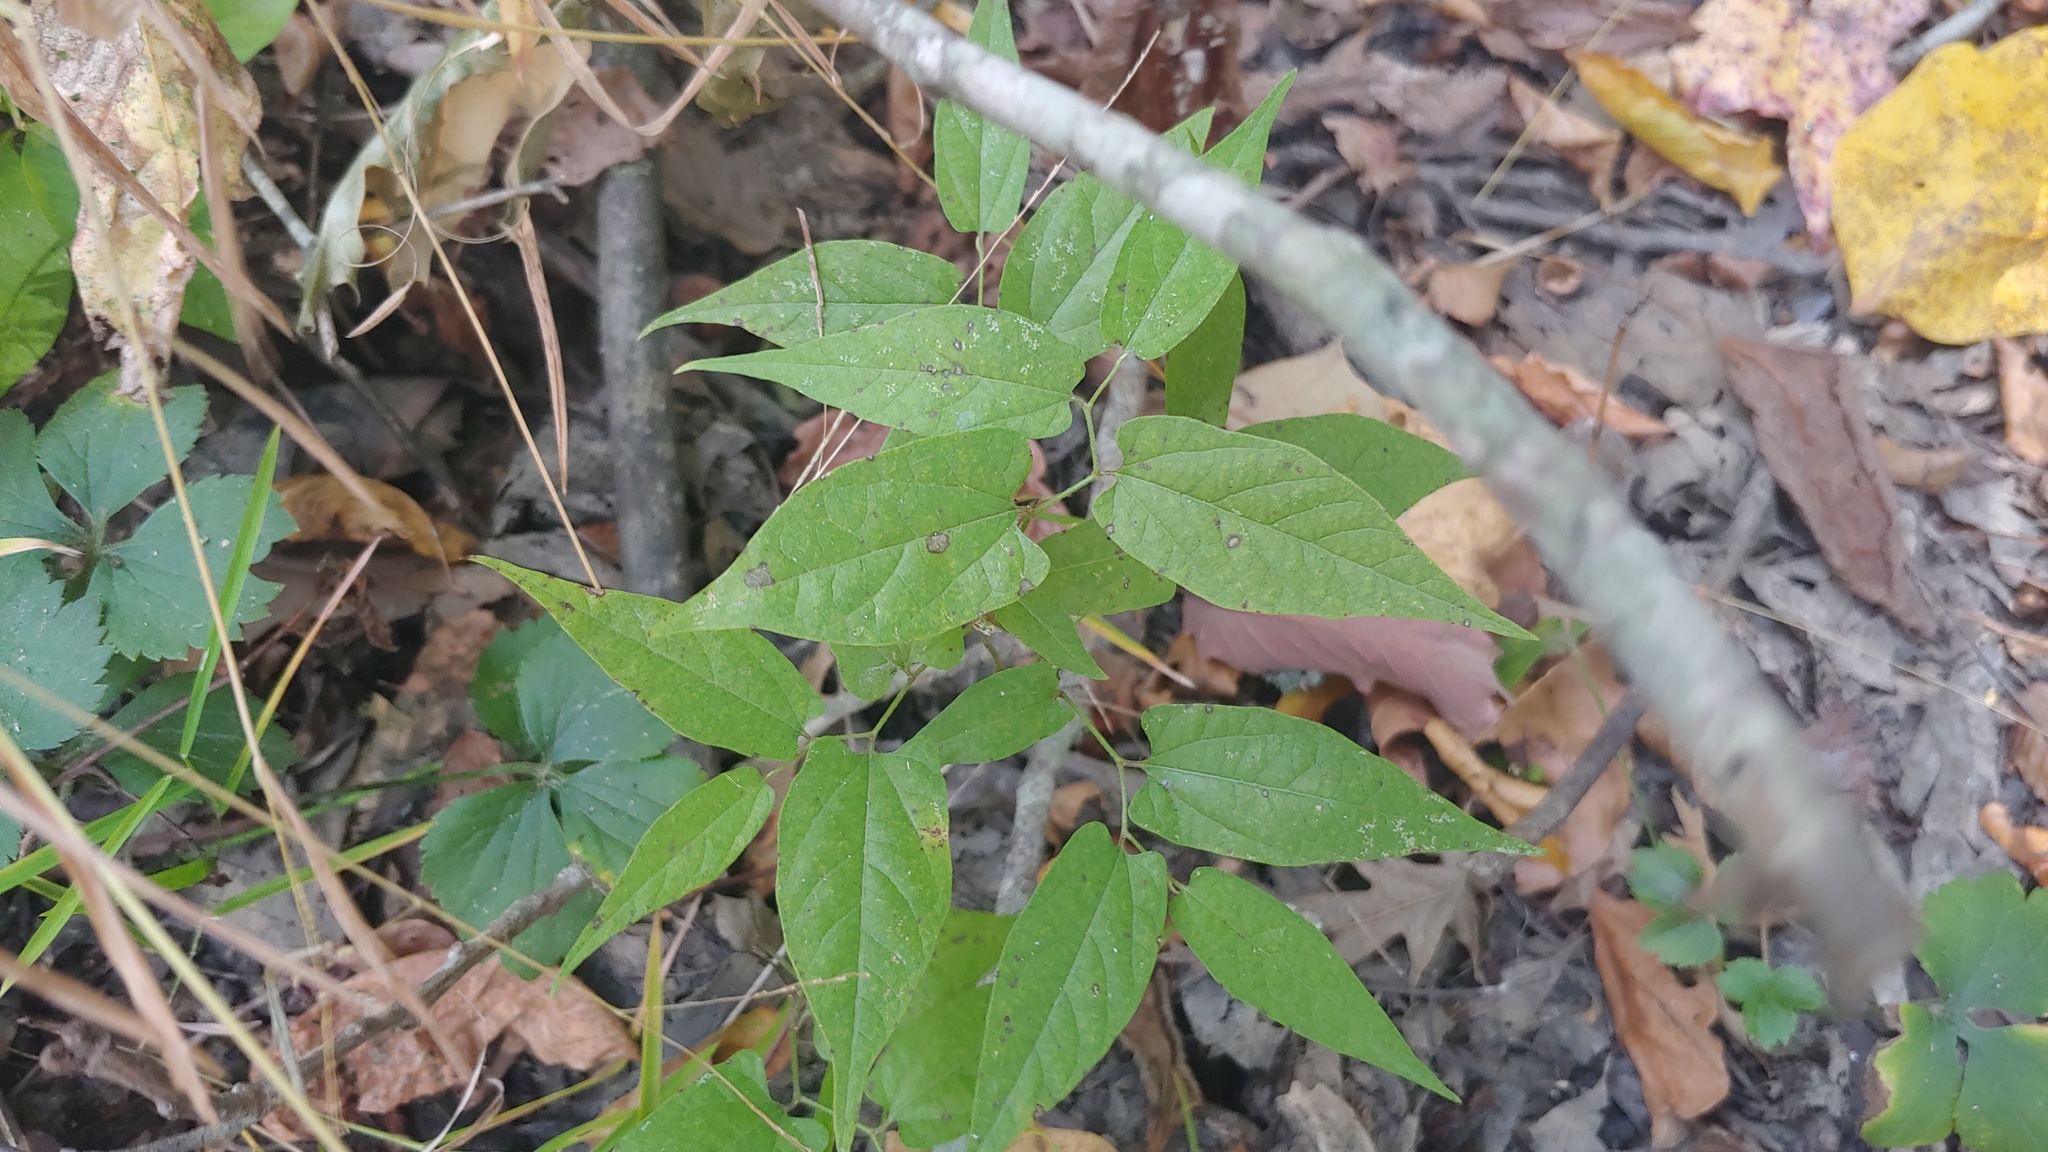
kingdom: Plantae
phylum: Tracheophyta
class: Magnoliopsida
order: Piperales
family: Aristolochiaceae
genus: Endodeca
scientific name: Endodeca serpentaria
